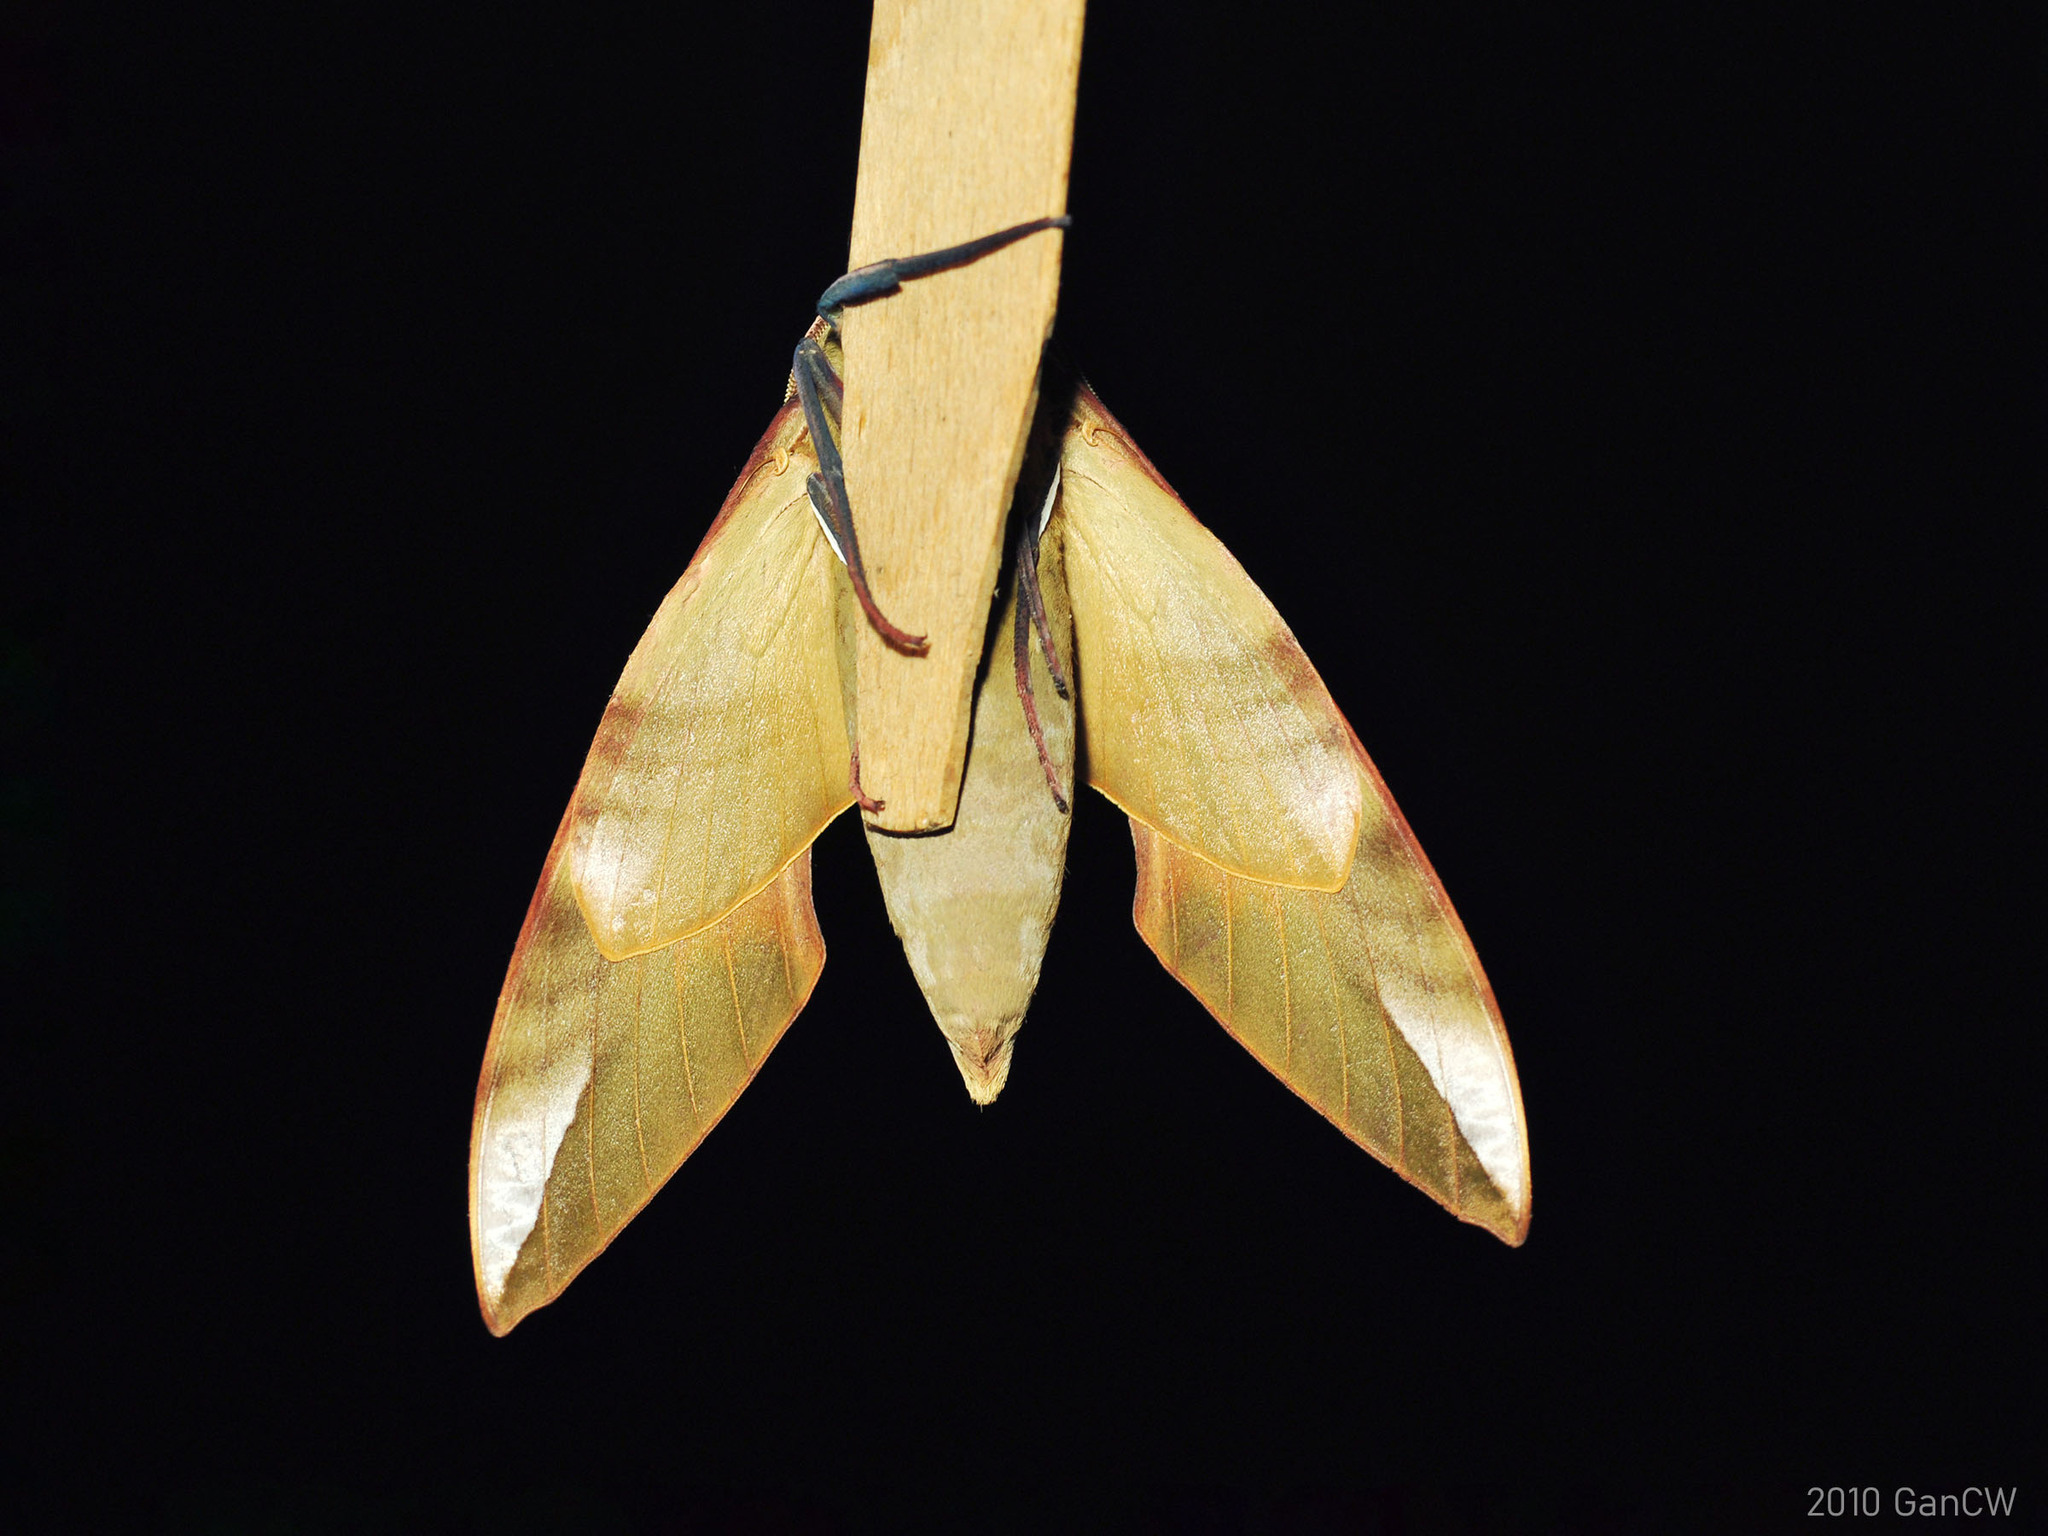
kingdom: Animalia
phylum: Arthropoda
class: Insecta
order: Lepidoptera
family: Sphingidae
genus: Clanis
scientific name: Clanis orhanti
